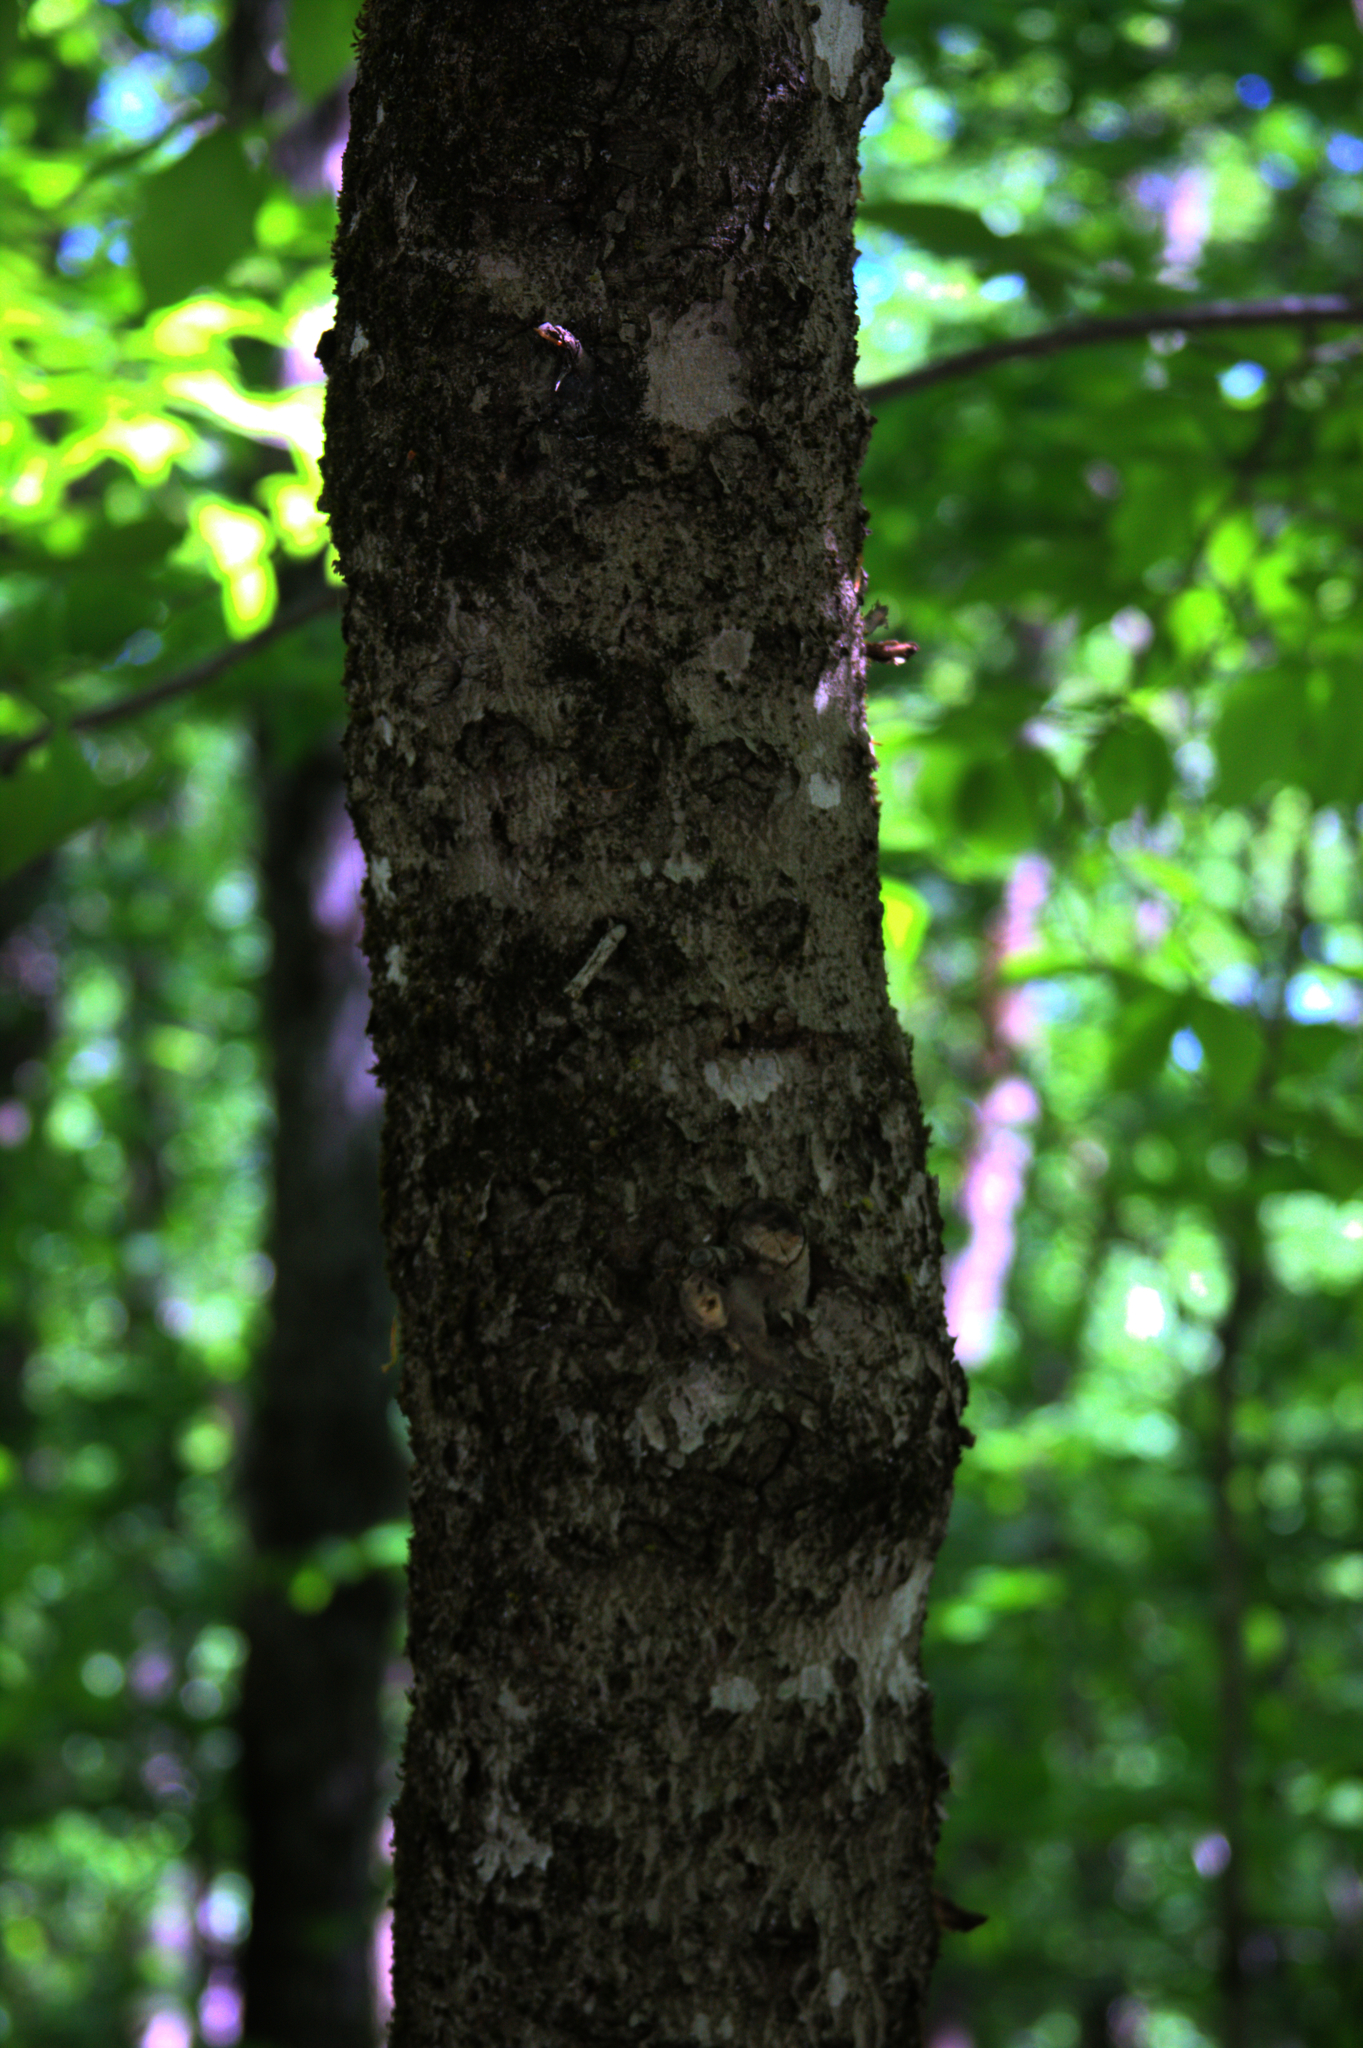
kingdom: Plantae
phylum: Tracheophyta
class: Magnoliopsida
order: Fagales
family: Fagaceae
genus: Fagus
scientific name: Fagus grandifolia
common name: American beech
